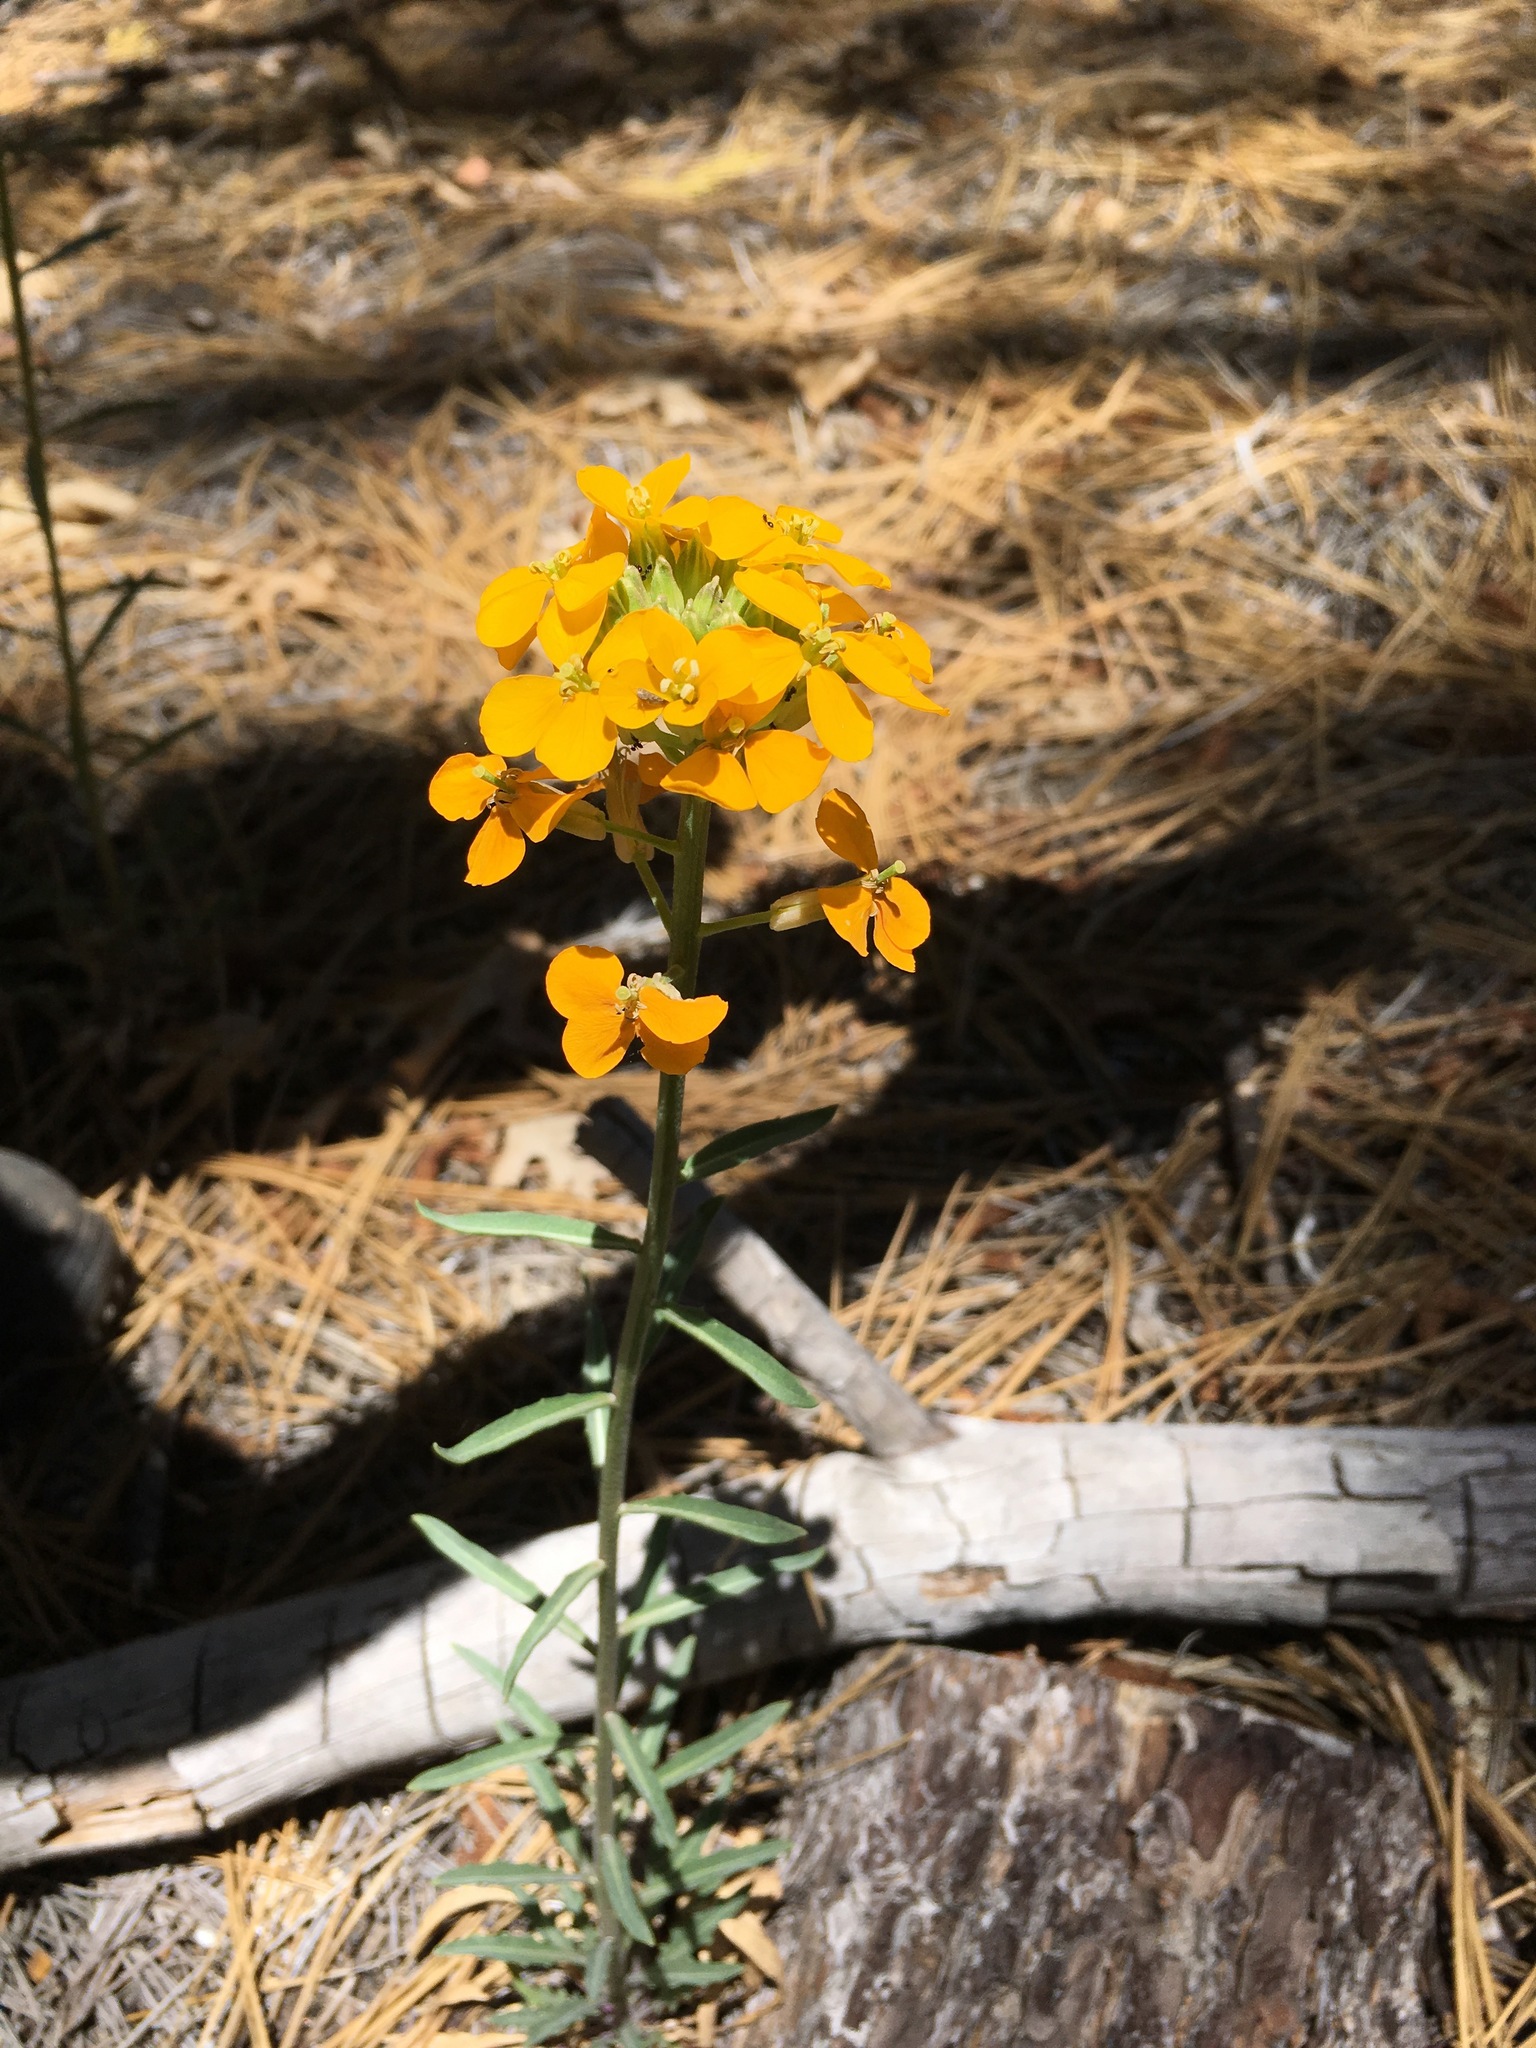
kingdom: Plantae
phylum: Tracheophyta
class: Magnoliopsida
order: Brassicales
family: Brassicaceae
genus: Erysimum
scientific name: Erysimum capitatum
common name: Western wallflower
